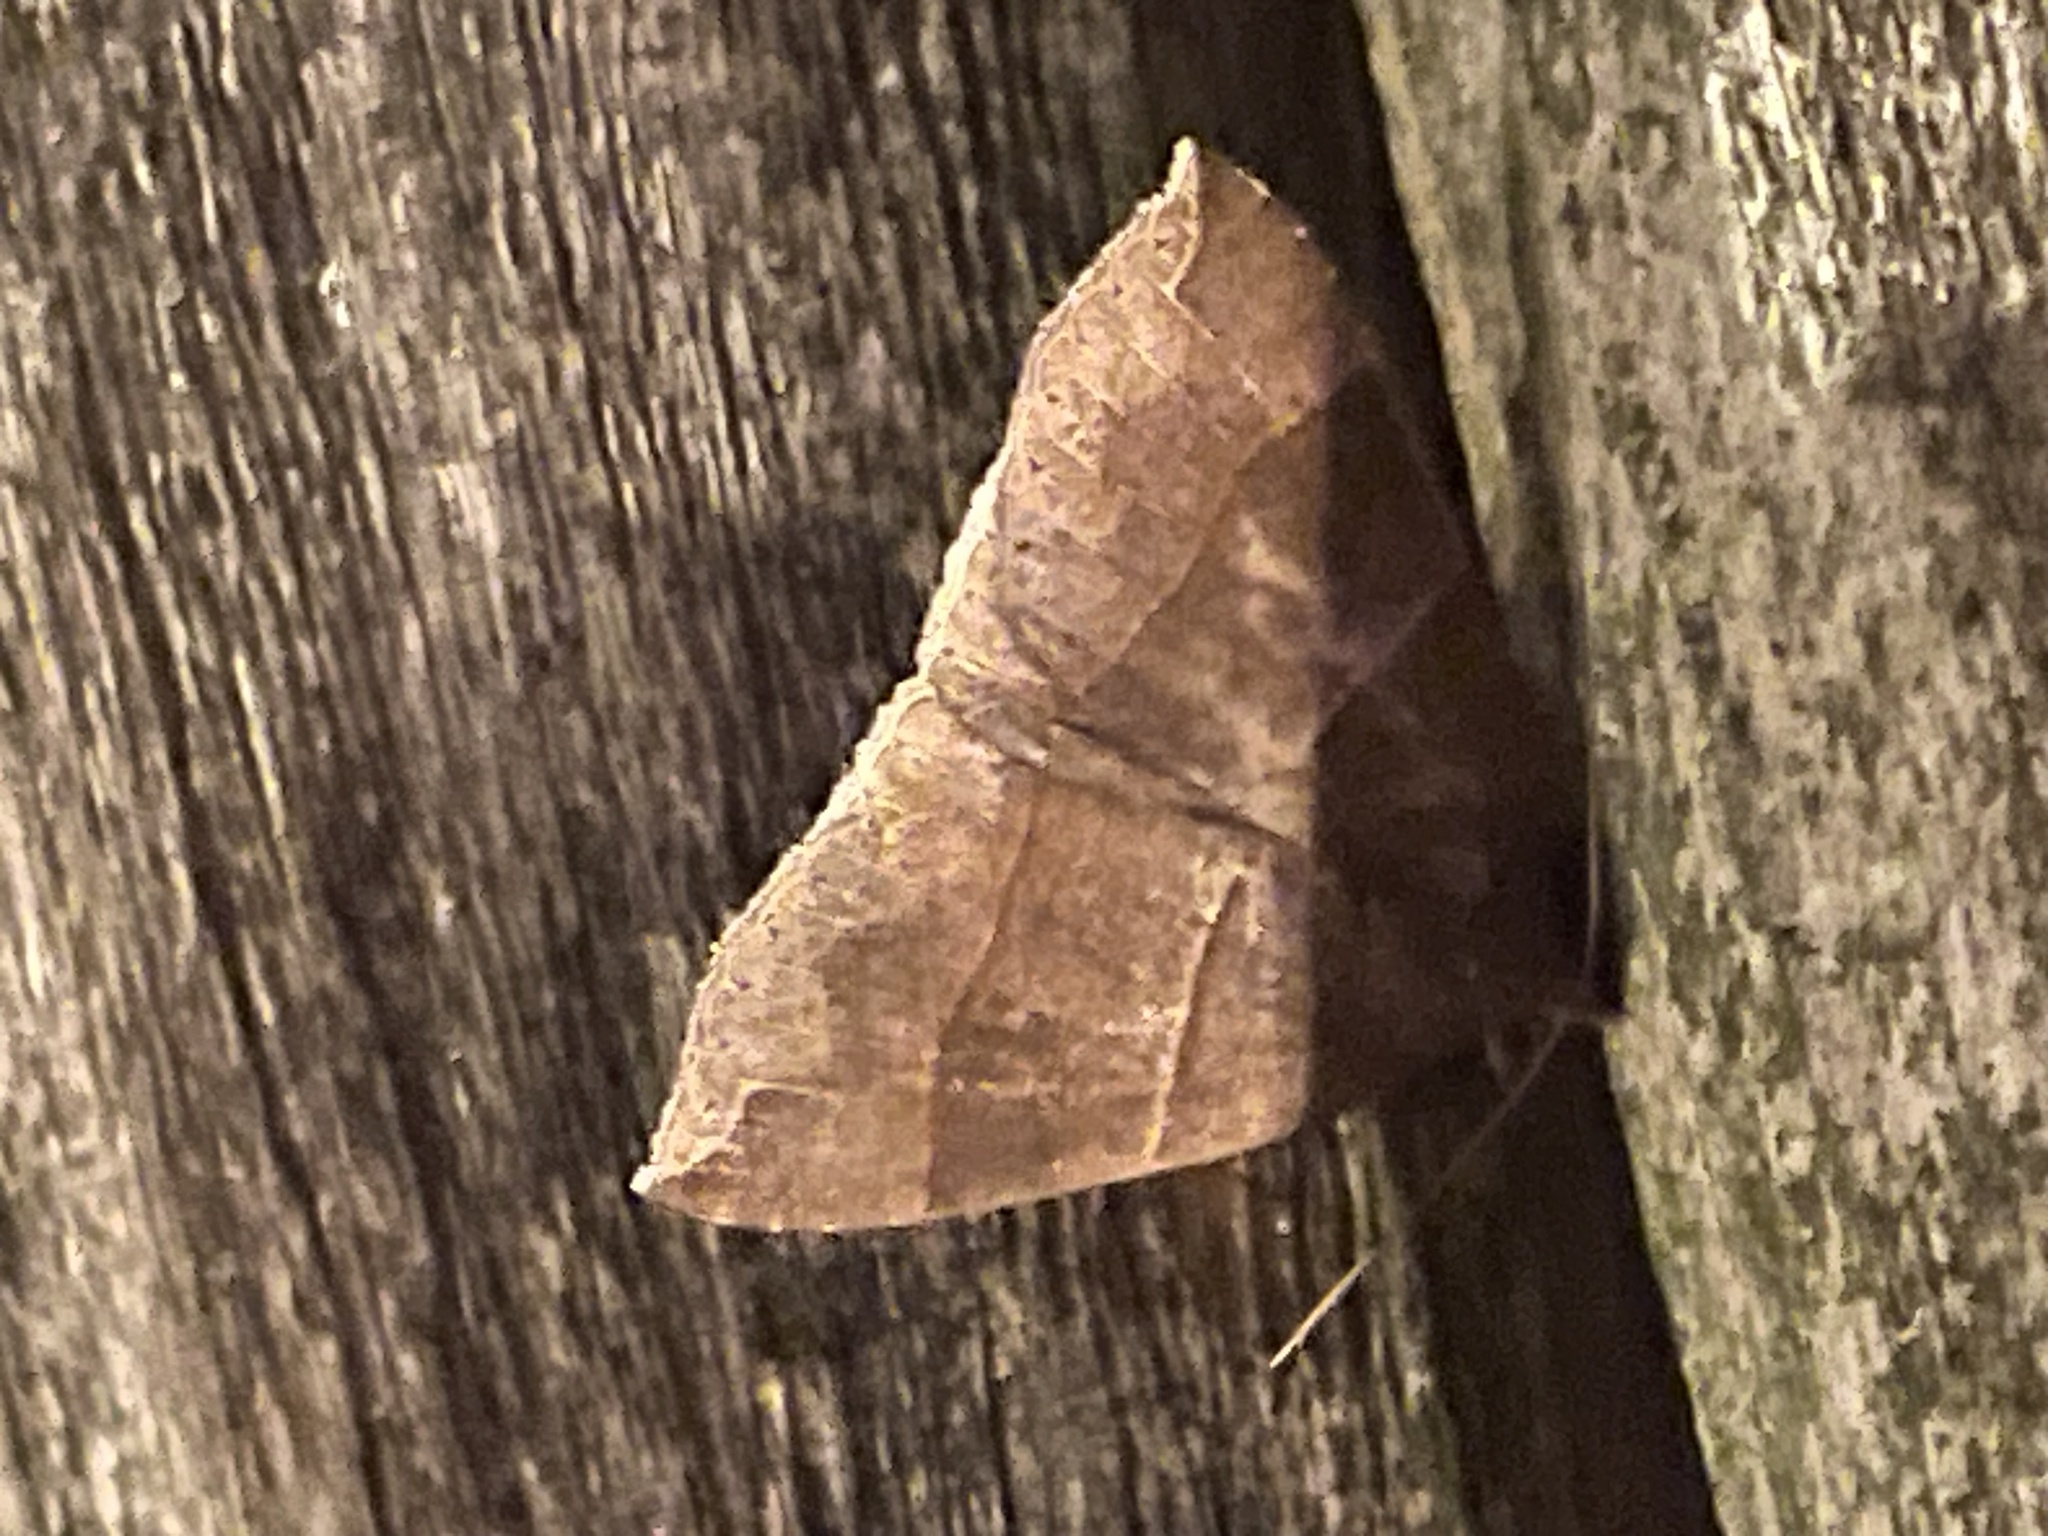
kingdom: Animalia
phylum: Arthropoda
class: Insecta
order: Lepidoptera
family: Erebidae
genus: Parallelia
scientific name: Parallelia bistriaris
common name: Maple looper moth
